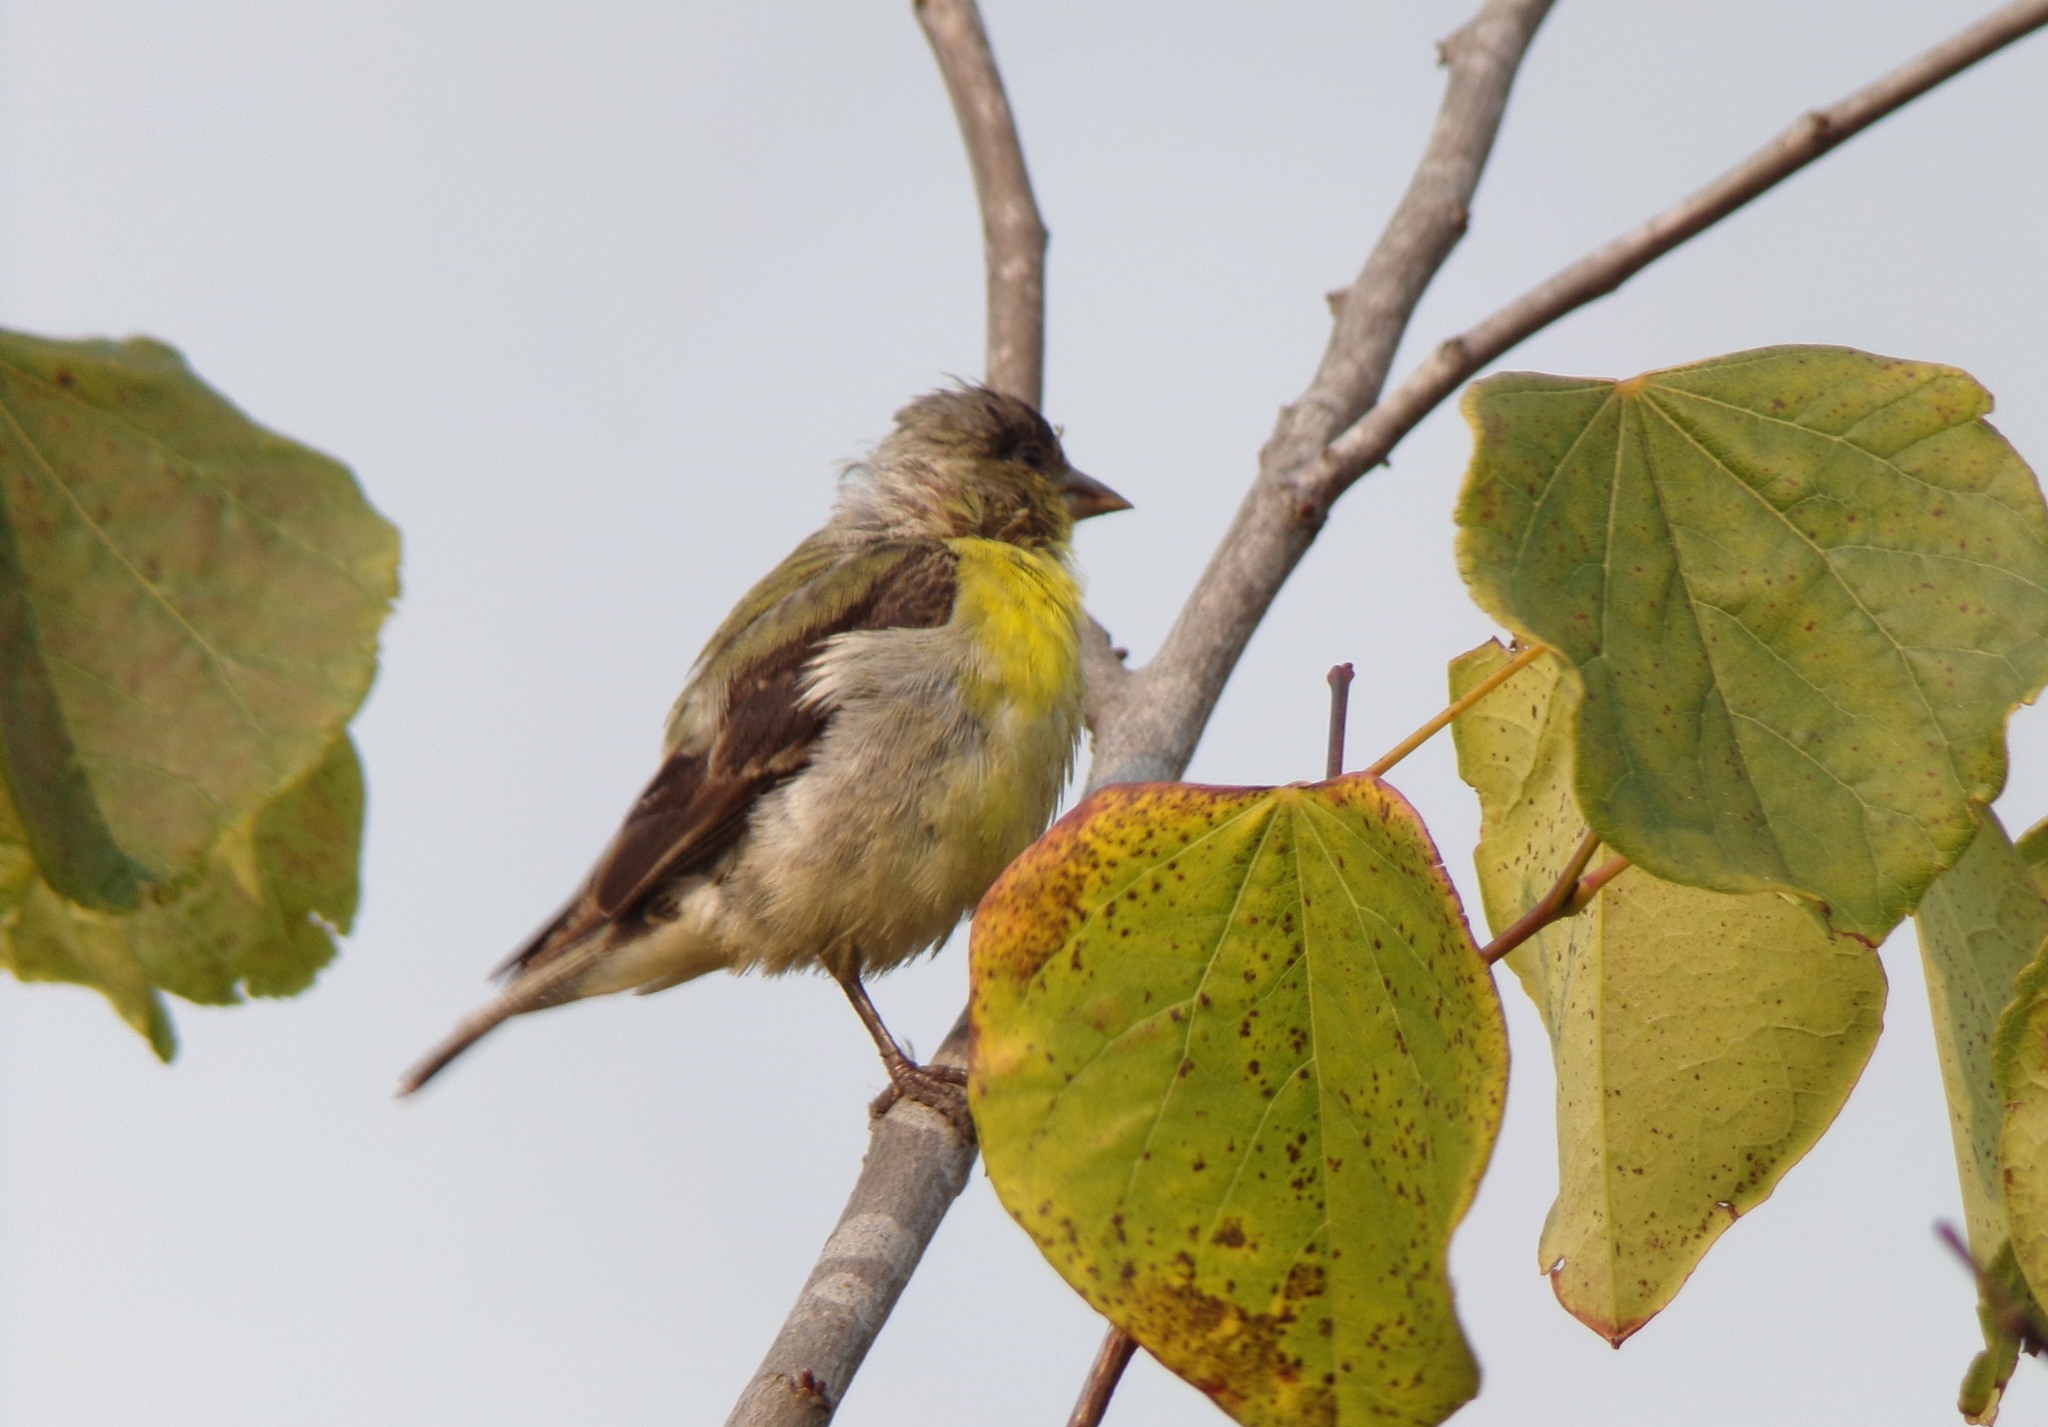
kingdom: Animalia
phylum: Chordata
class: Aves
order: Passeriformes
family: Fringillidae
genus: Spinus
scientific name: Spinus psaltria
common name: Lesser goldfinch
